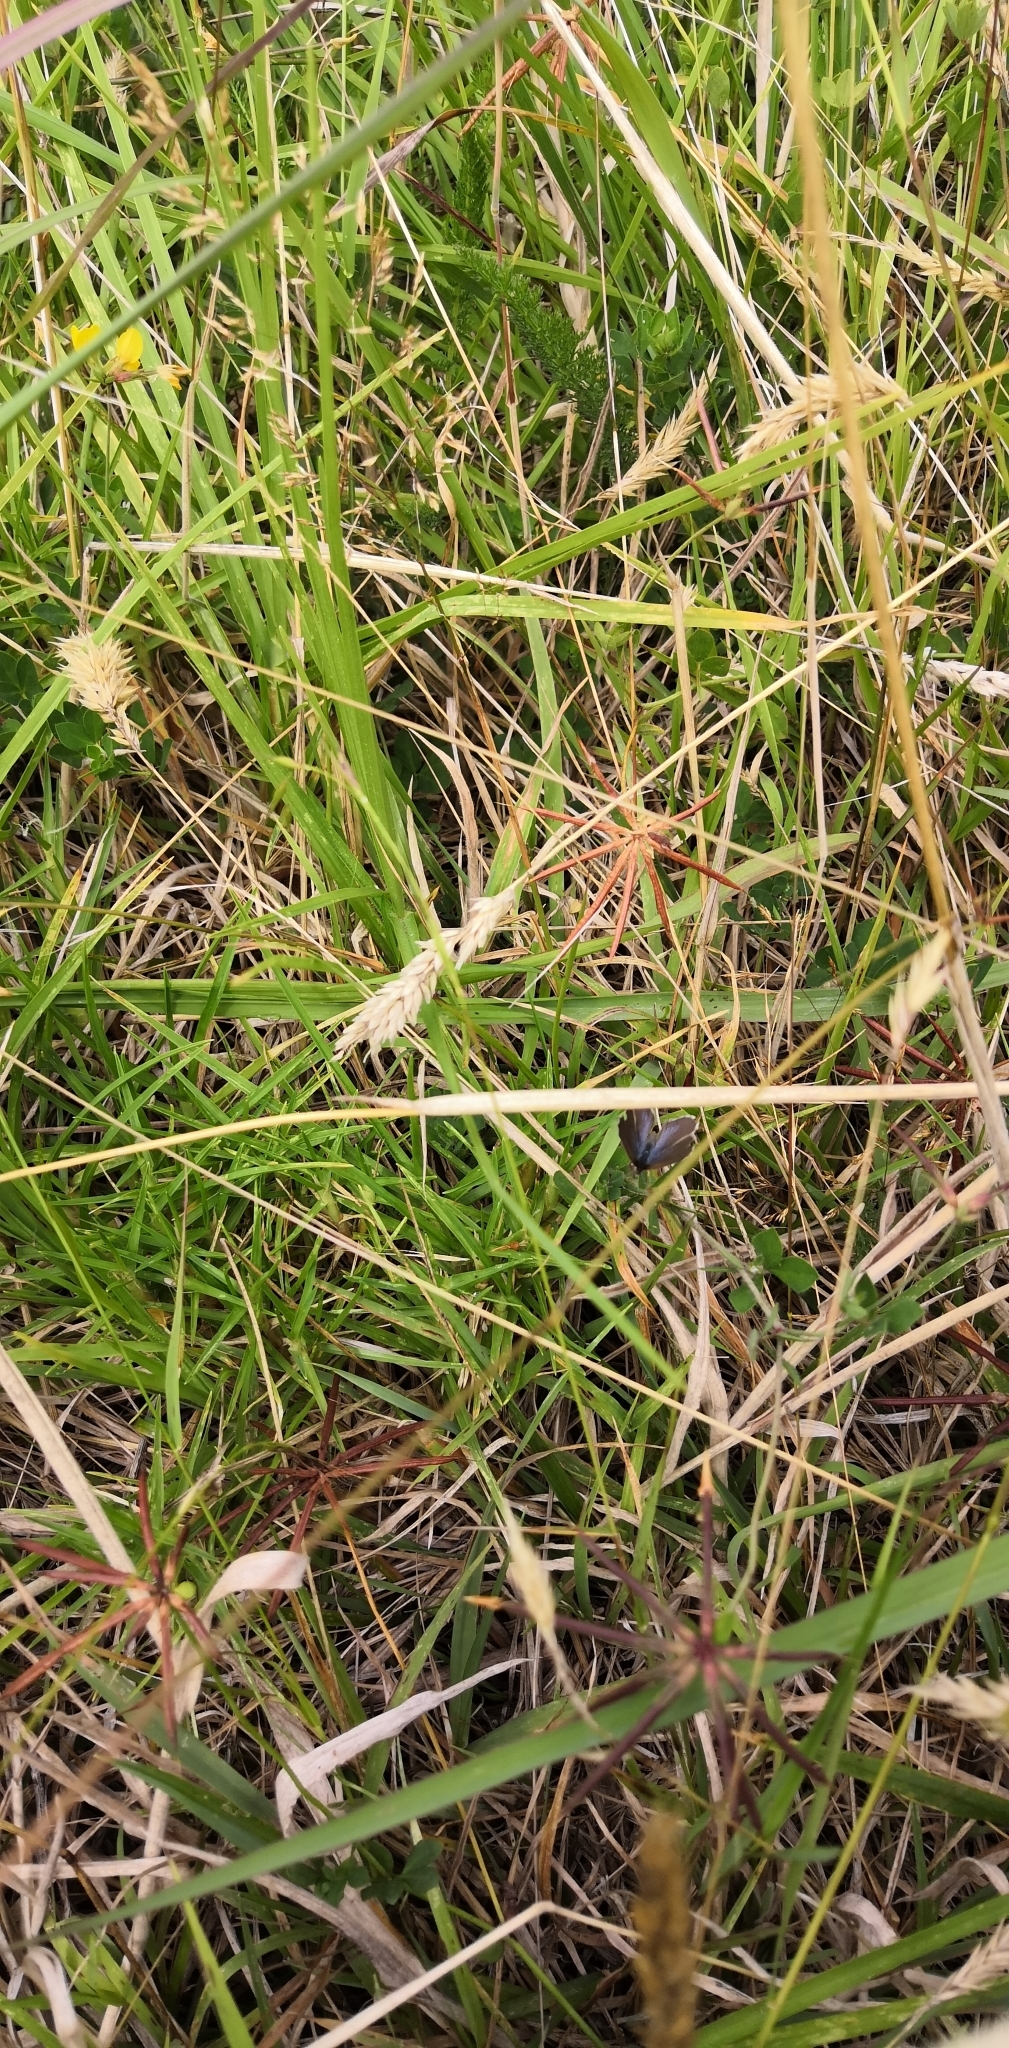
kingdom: Animalia
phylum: Arthropoda
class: Insecta
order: Lepidoptera
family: Lycaenidae
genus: Zizina
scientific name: Zizina labradus
